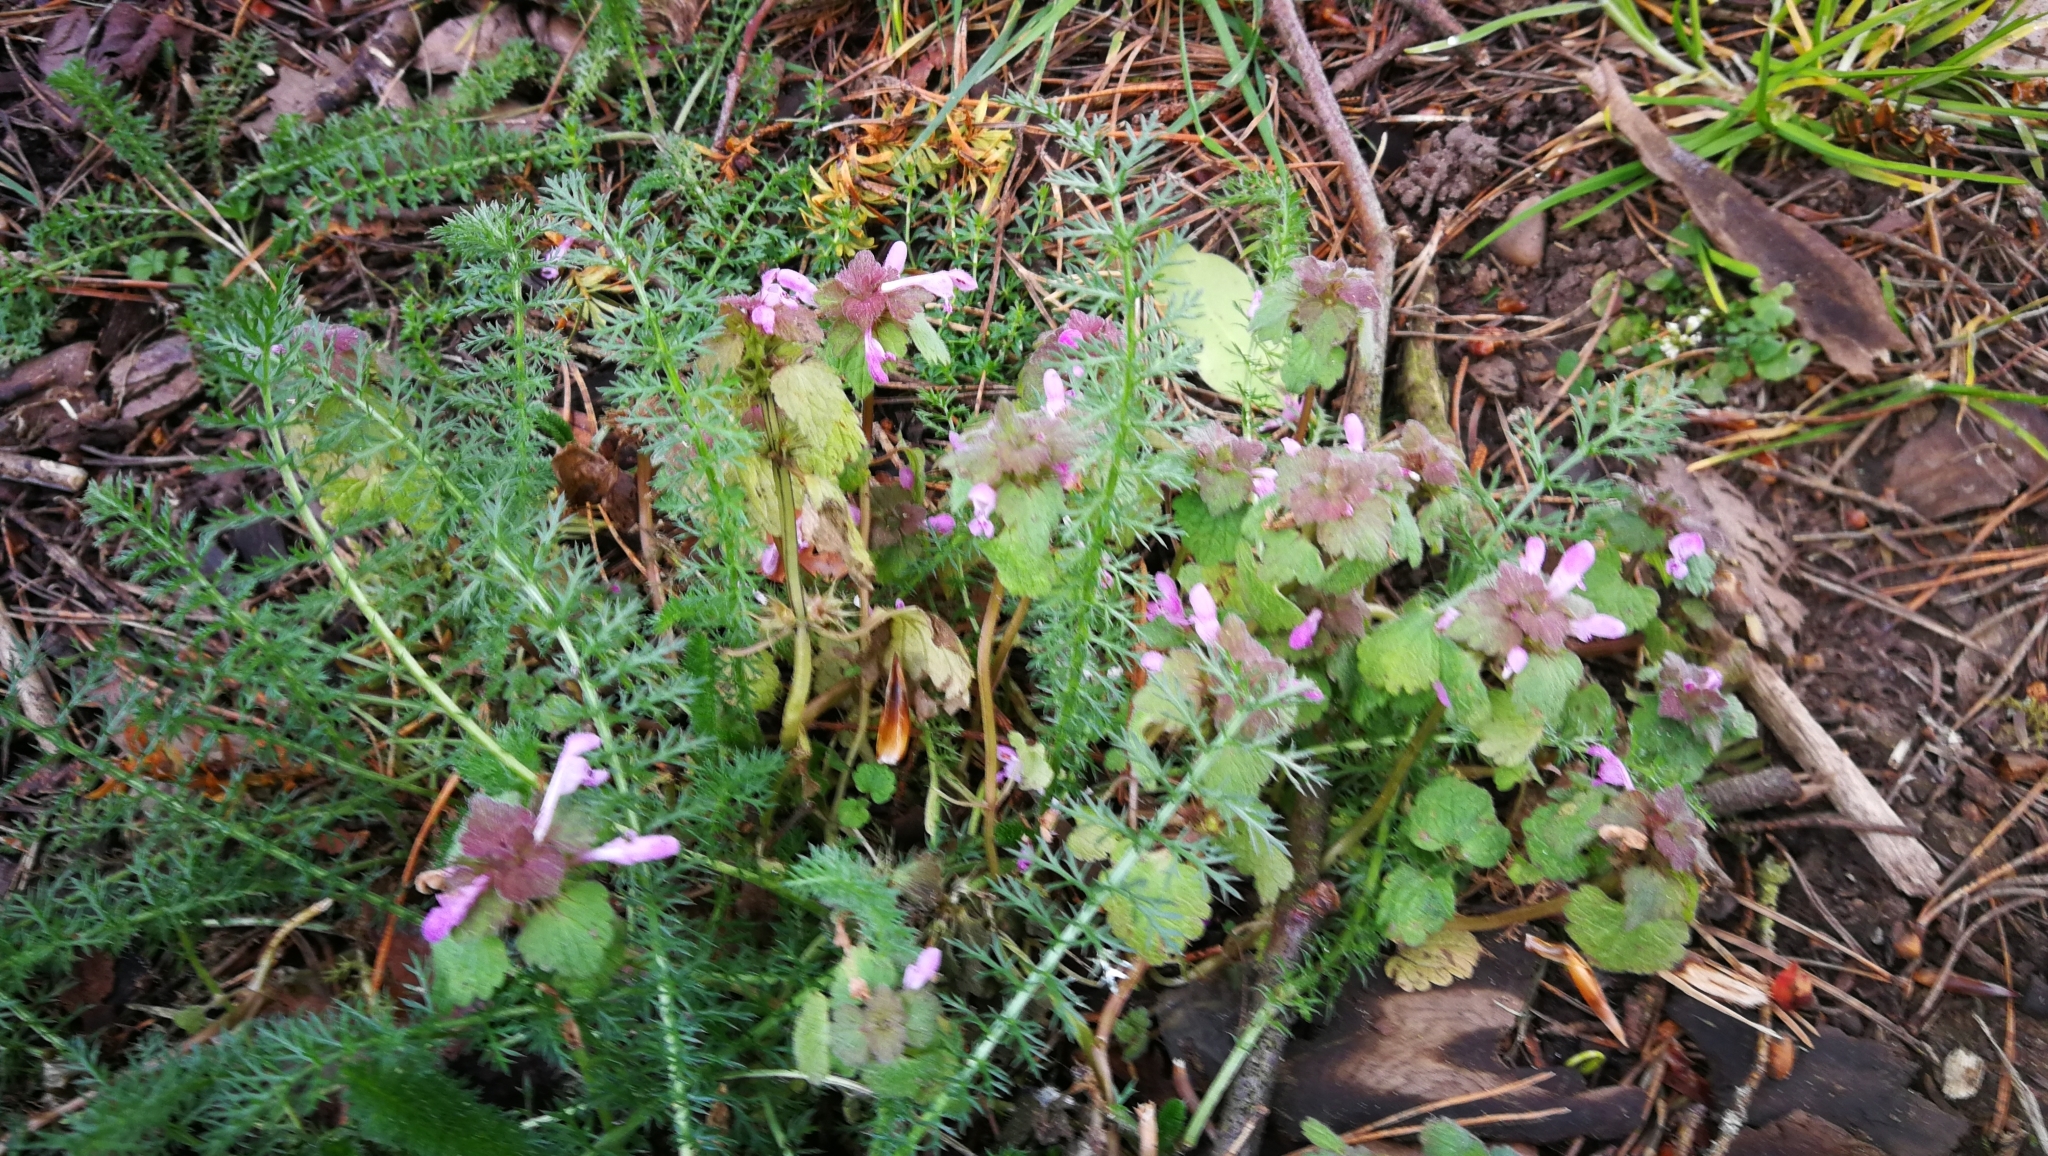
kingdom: Plantae
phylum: Tracheophyta
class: Magnoliopsida
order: Lamiales
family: Lamiaceae
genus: Lamium
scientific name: Lamium purpureum
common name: Red dead-nettle
